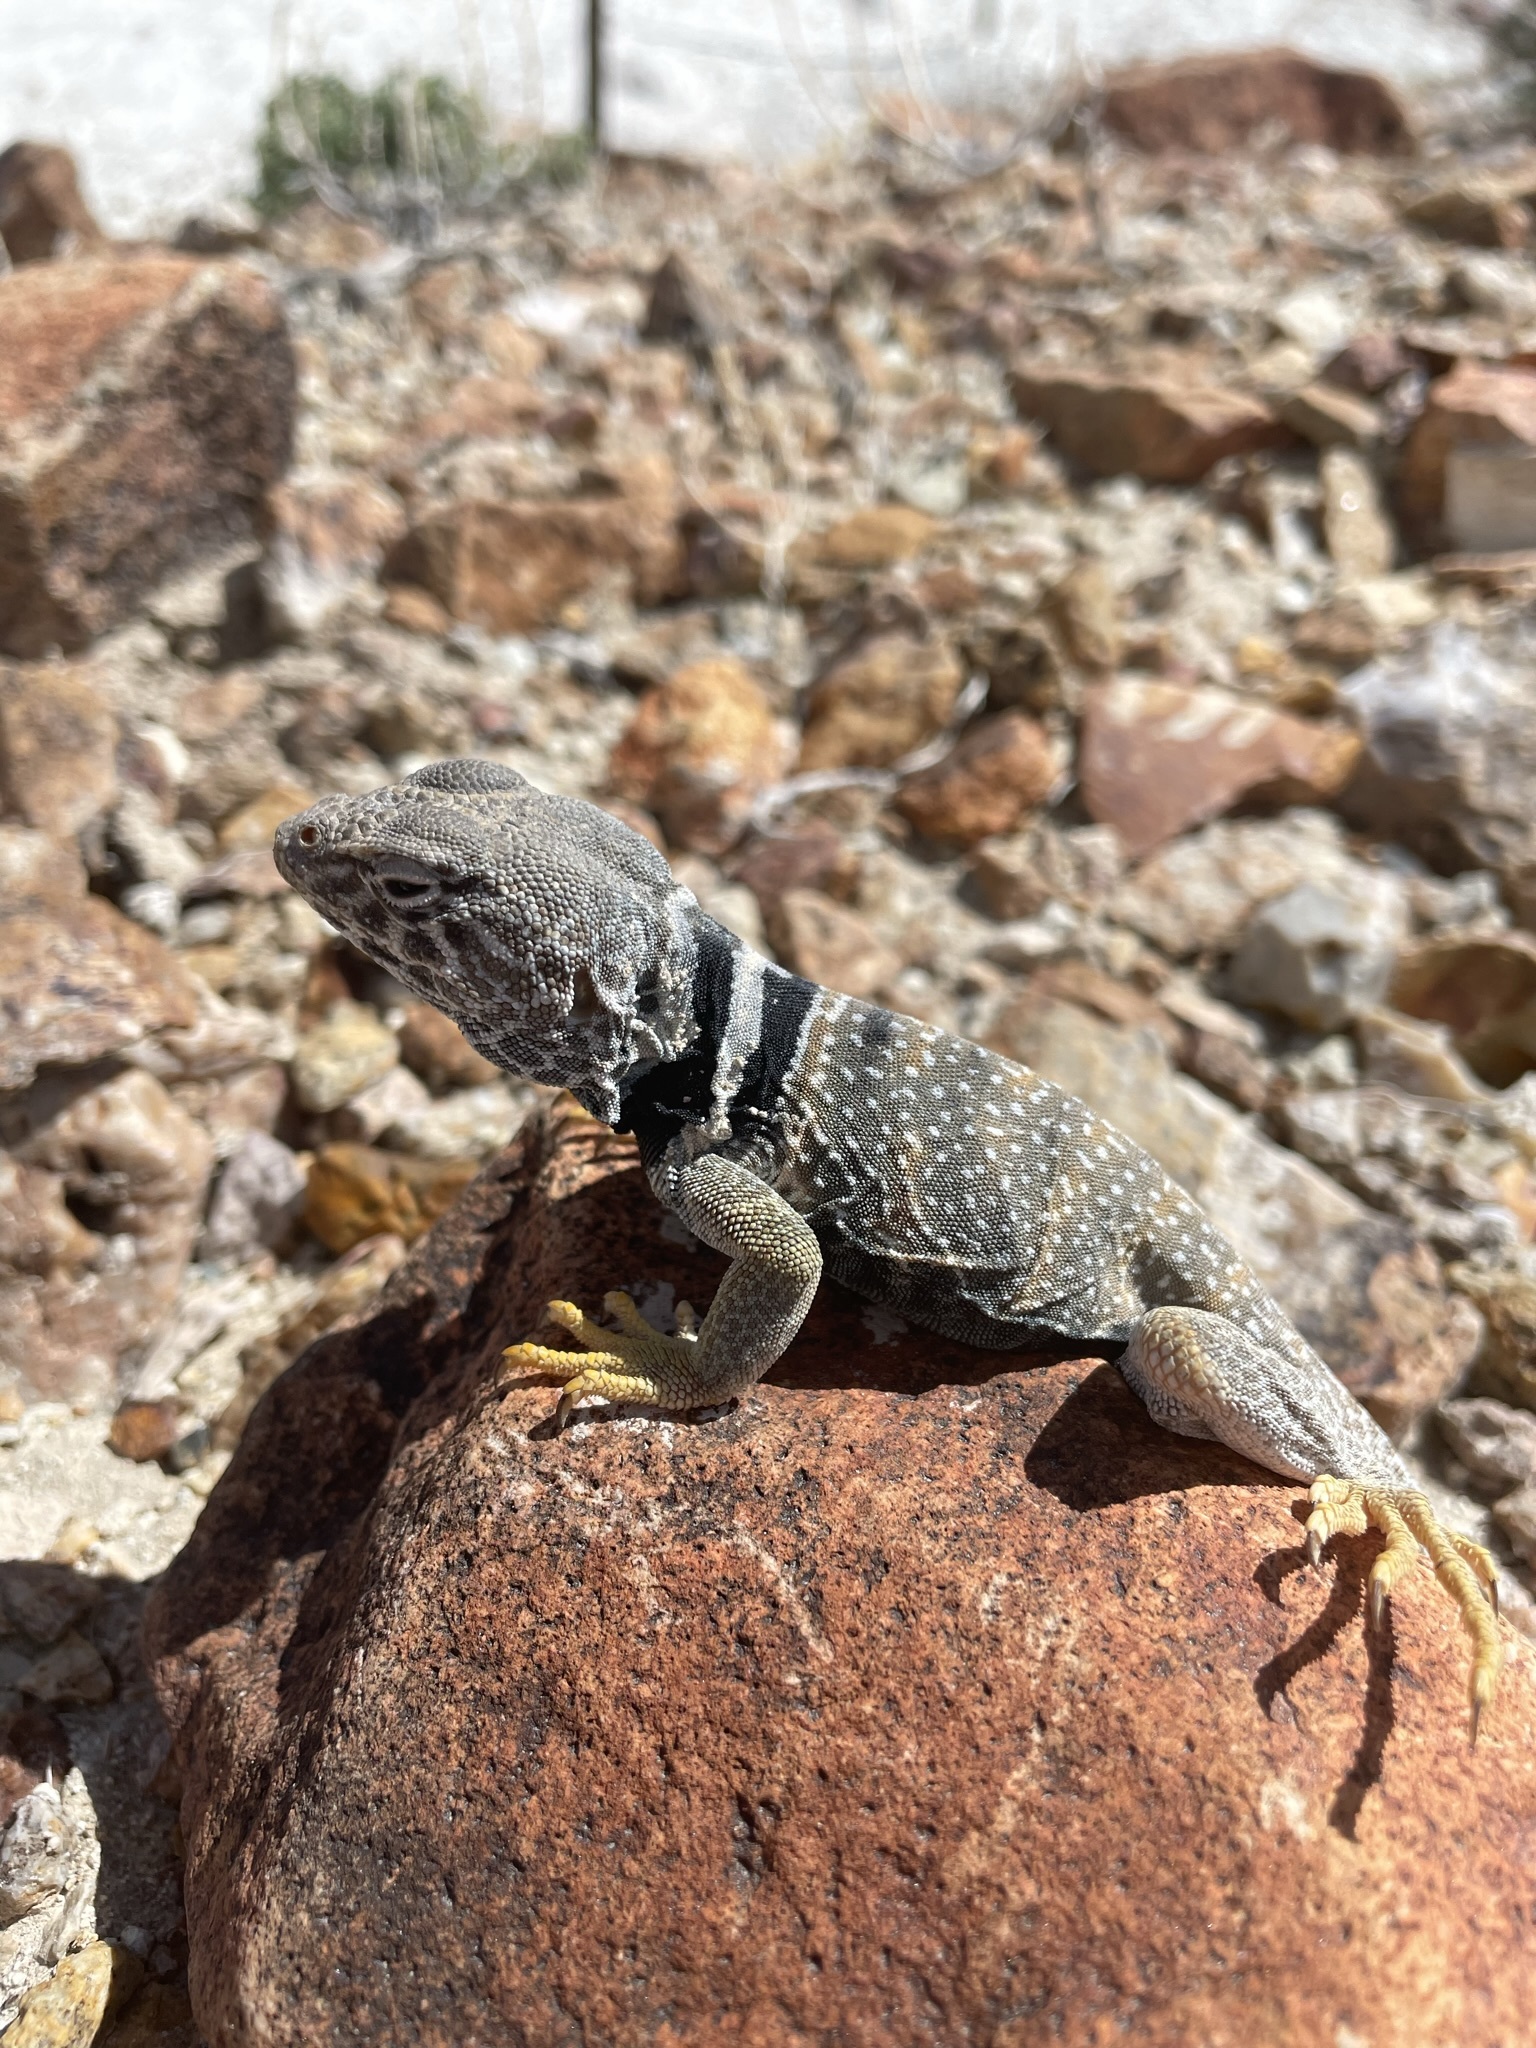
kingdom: Animalia
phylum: Chordata
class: Squamata
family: Crotaphytidae
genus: Crotaphytus
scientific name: Crotaphytus bicinctores
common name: Mojave black-collared lizard
